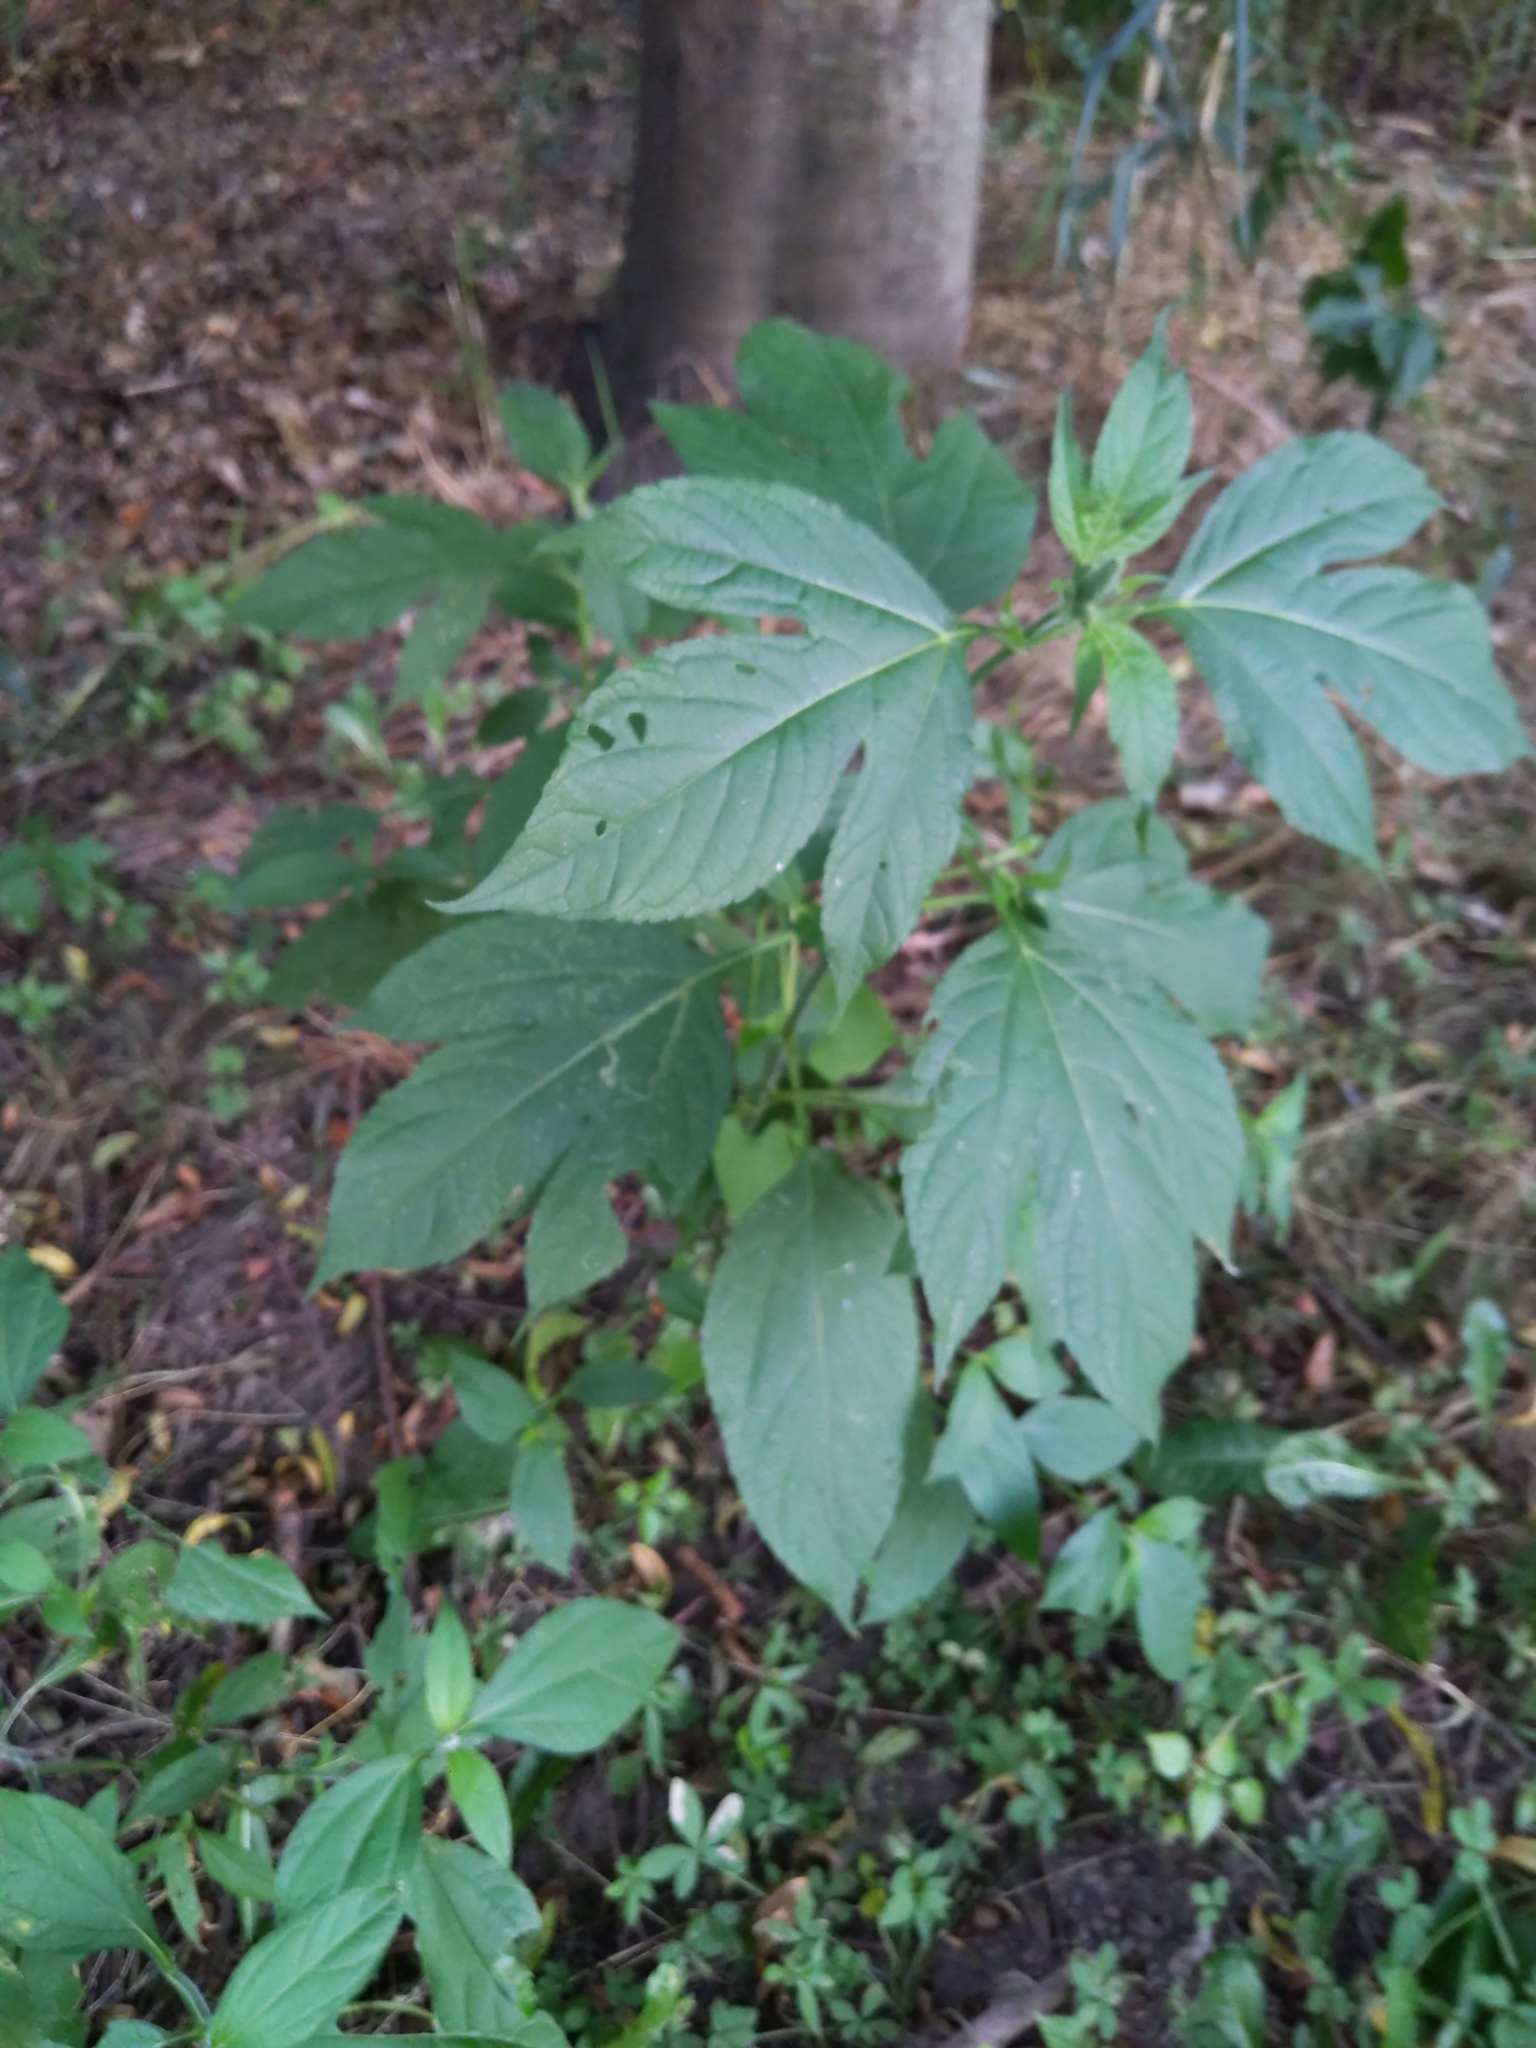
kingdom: Plantae
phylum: Tracheophyta
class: Magnoliopsida
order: Asterales
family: Asteraceae
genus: Ambrosia
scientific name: Ambrosia trifida
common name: Giant ragweed
